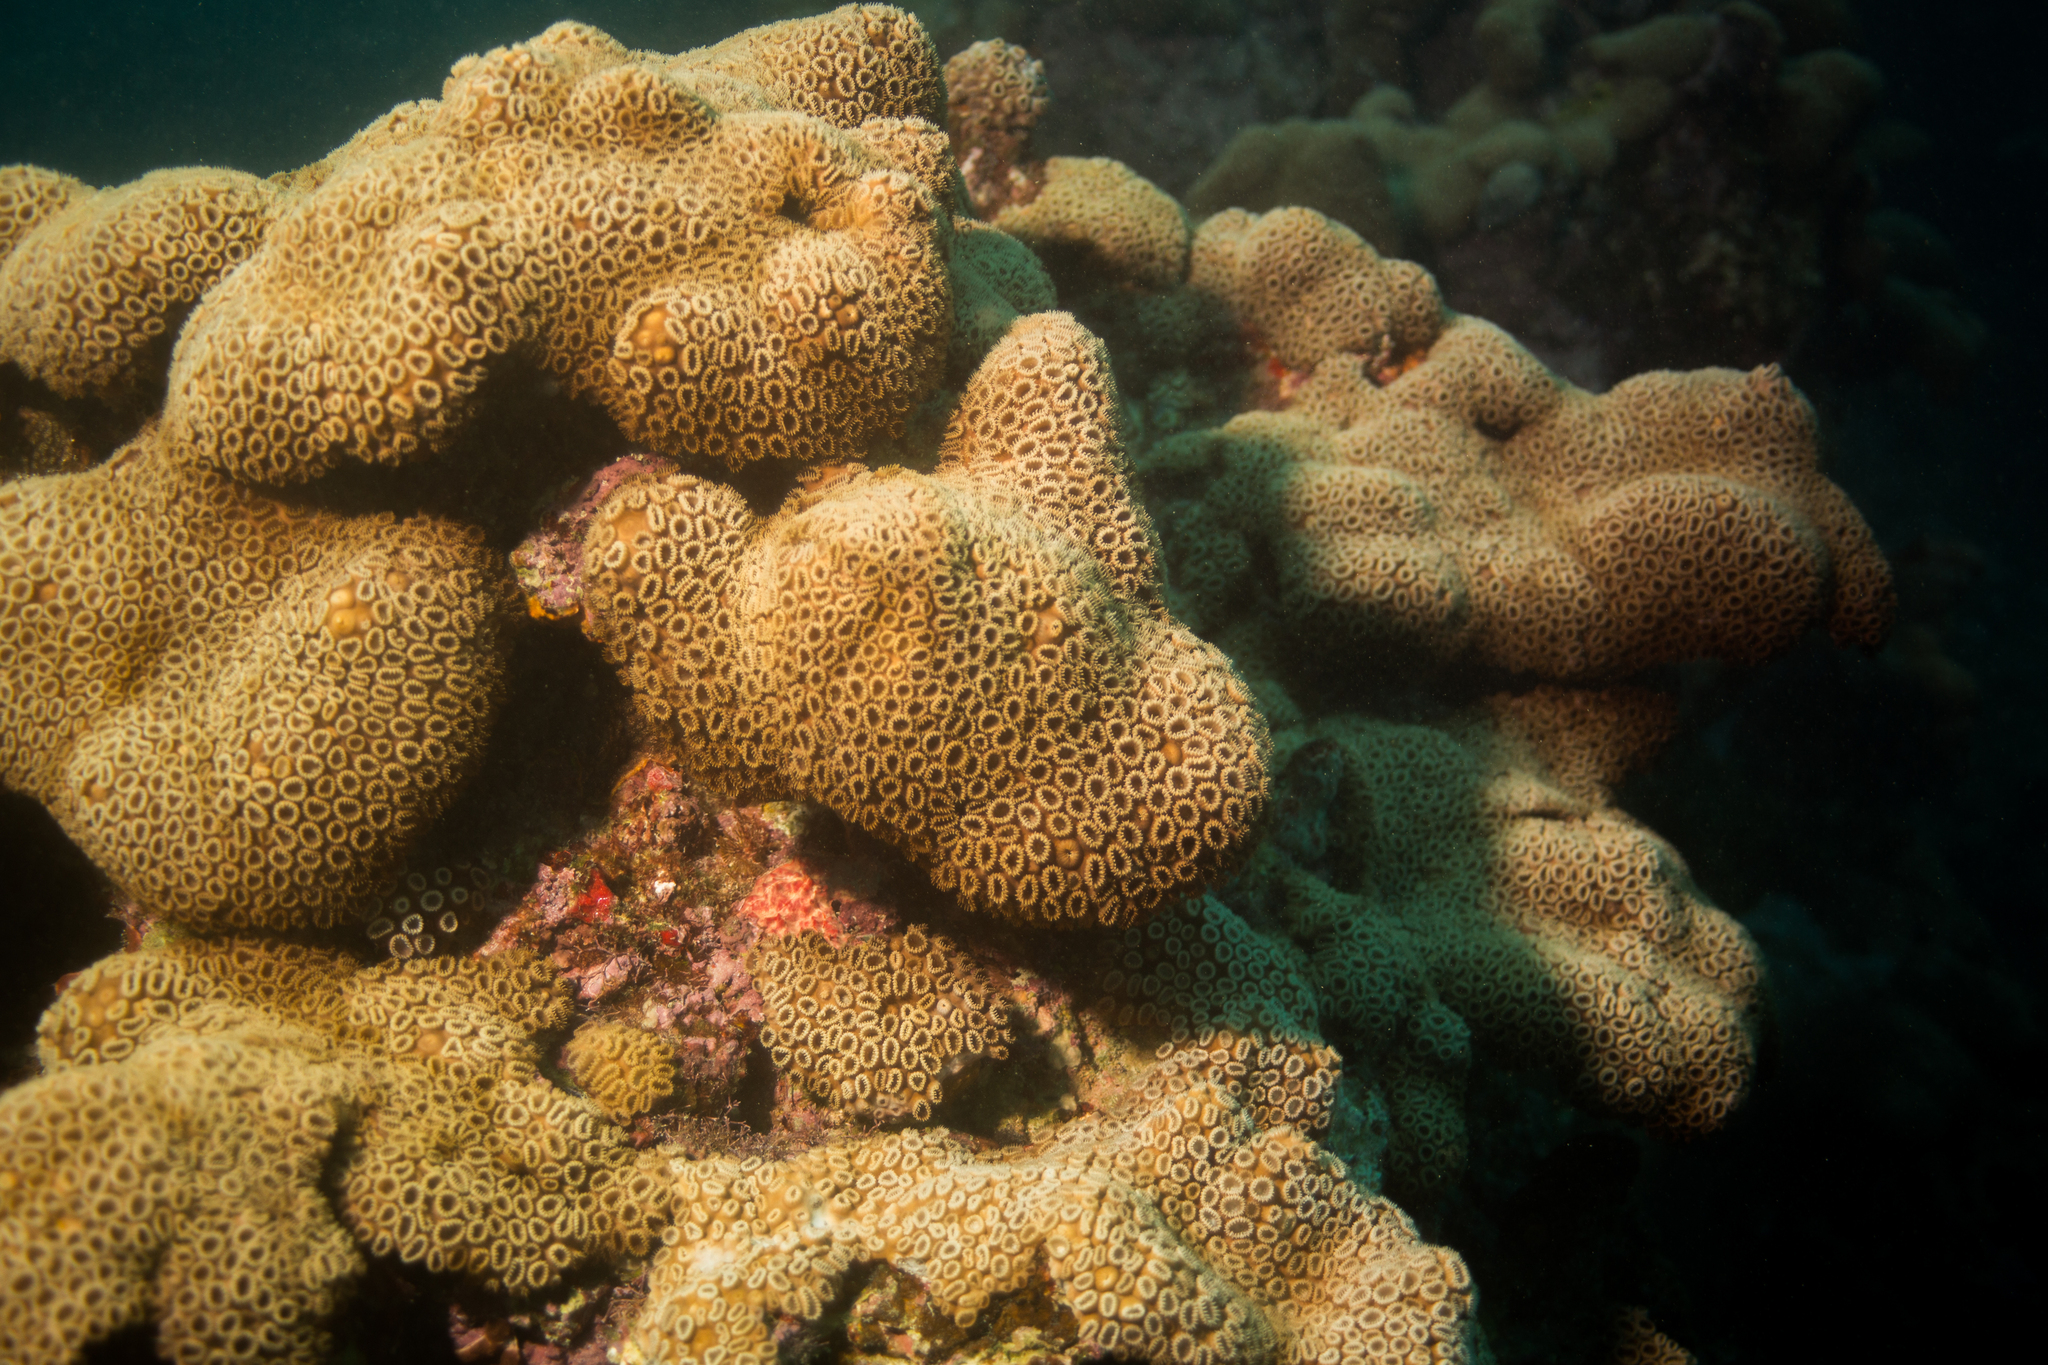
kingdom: Animalia
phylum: Cnidaria
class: Anthozoa
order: Zoantharia
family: Sphenopidae
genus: Palythoa
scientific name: Palythoa caribaeorum
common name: Encrusting colonial anemone
